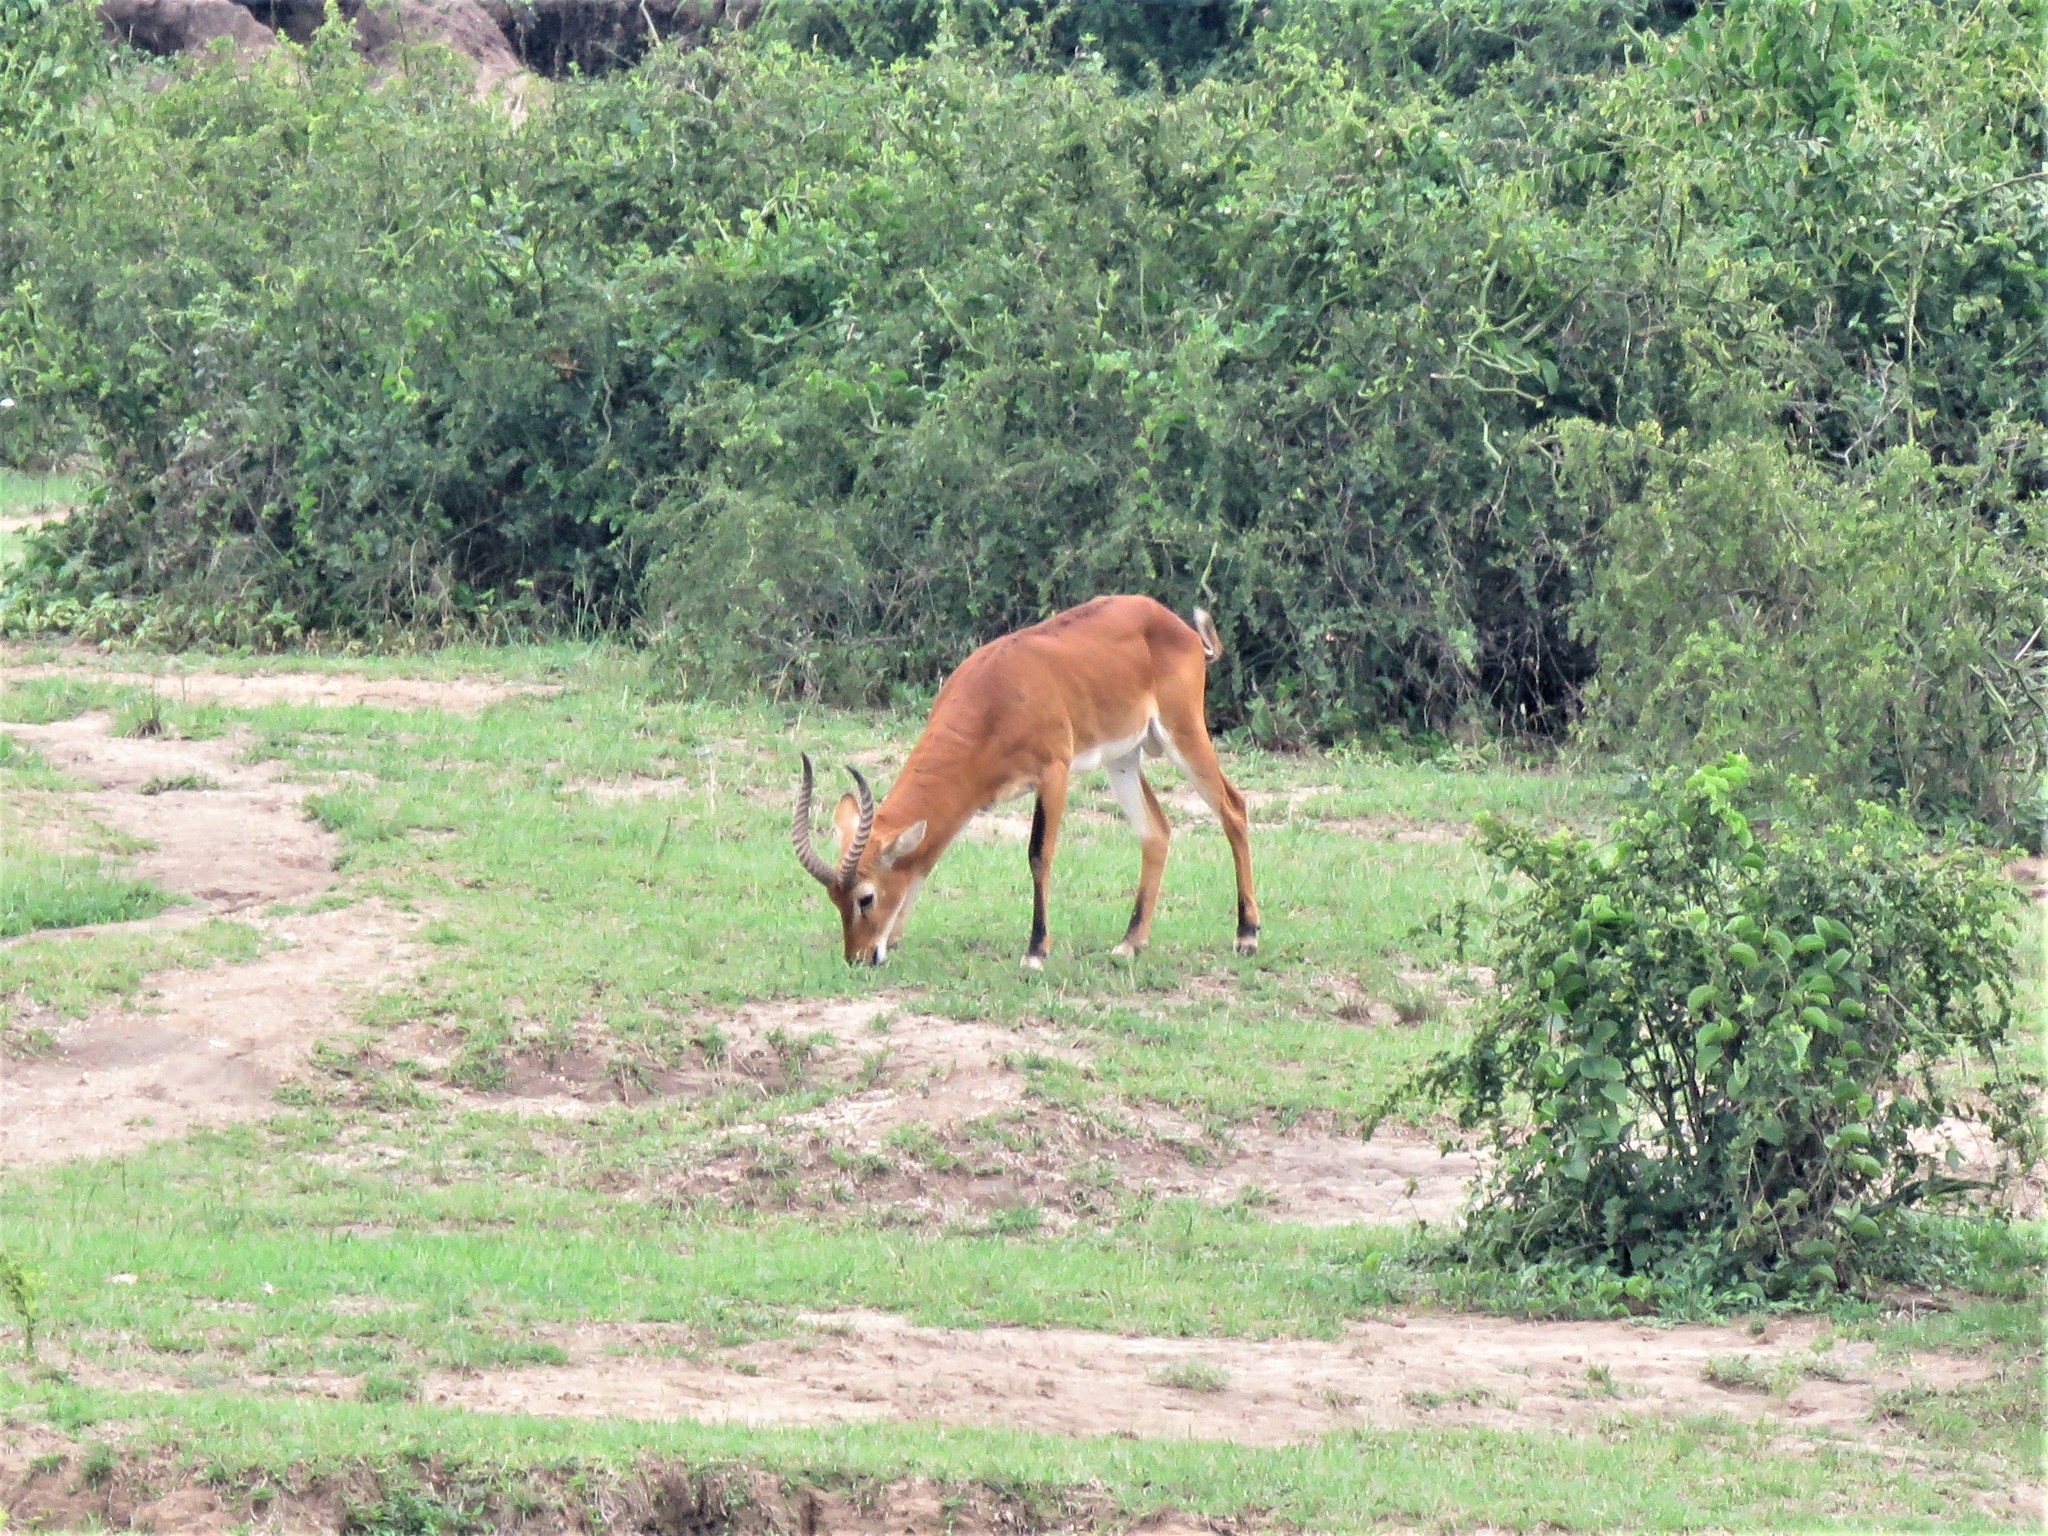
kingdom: Animalia
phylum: Chordata
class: Mammalia
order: Artiodactyla
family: Bovidae
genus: Kobus
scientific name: Kobus kob
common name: Kob
